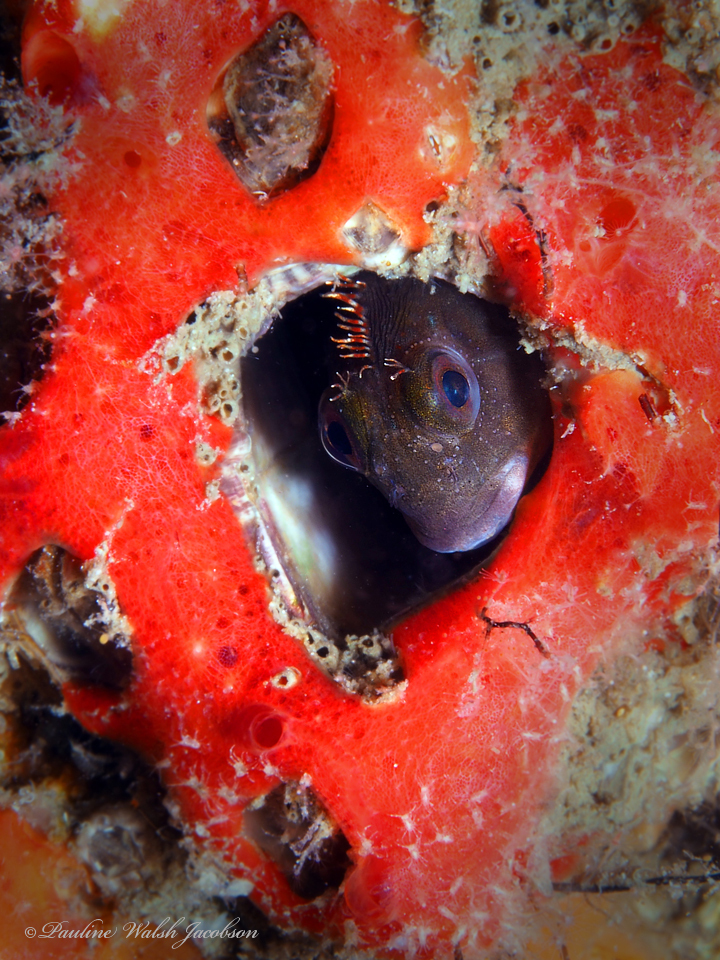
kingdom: Animalia
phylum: Chordata
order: Perciformes
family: Blenniidae
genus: Scartella
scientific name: Scartella cristata
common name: Molly miller
